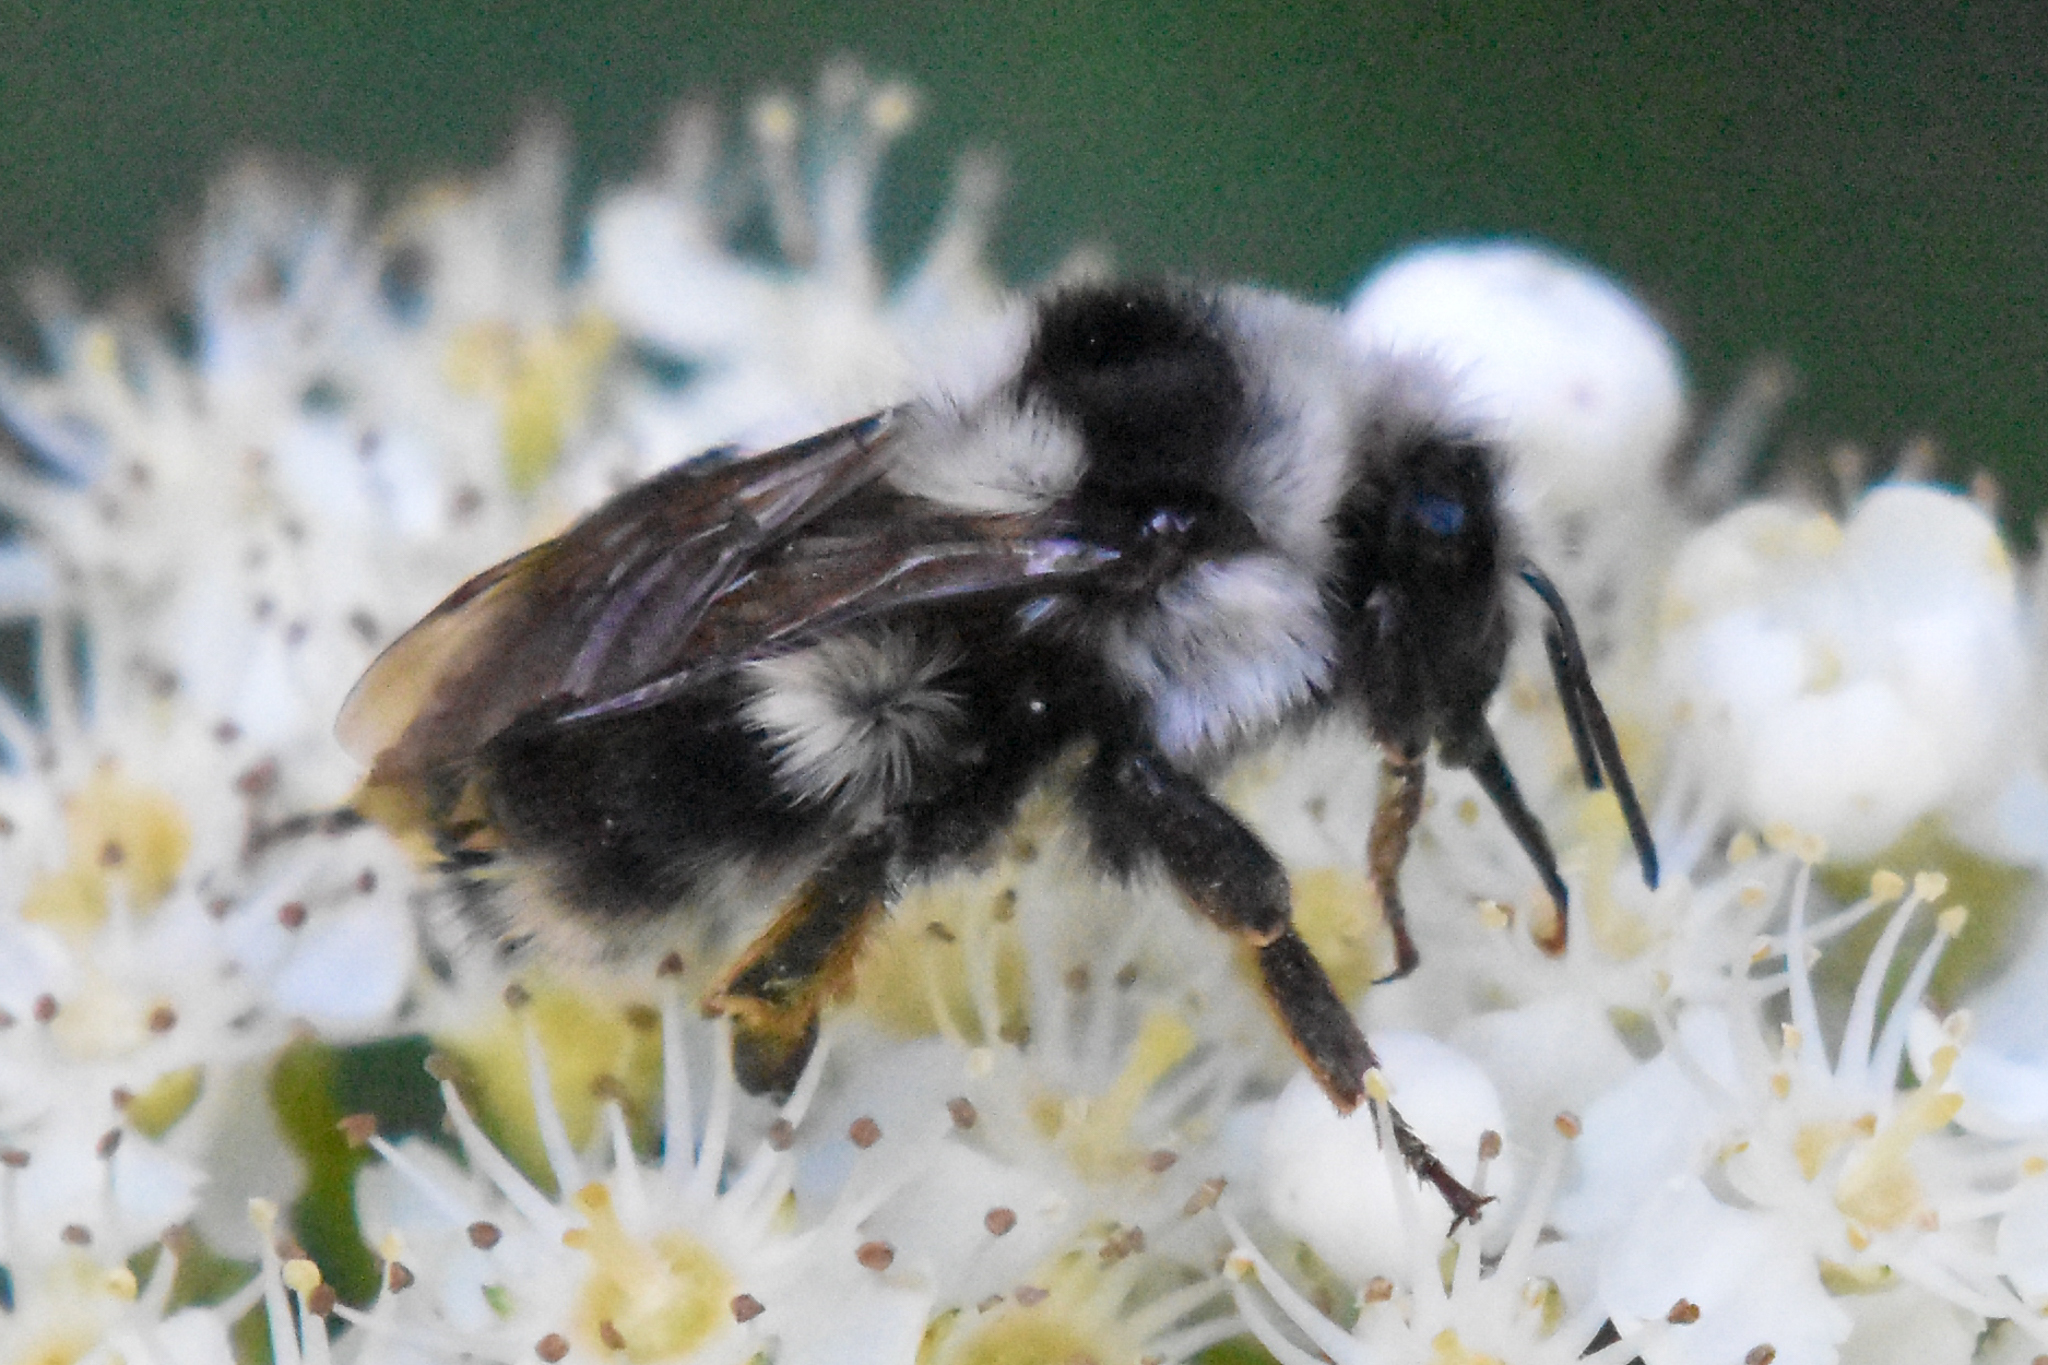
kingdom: Animalia
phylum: Arthropoda
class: Insecta
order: Hymenoptera
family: Apidae
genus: Bombus
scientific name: Bombus vancouverensis
